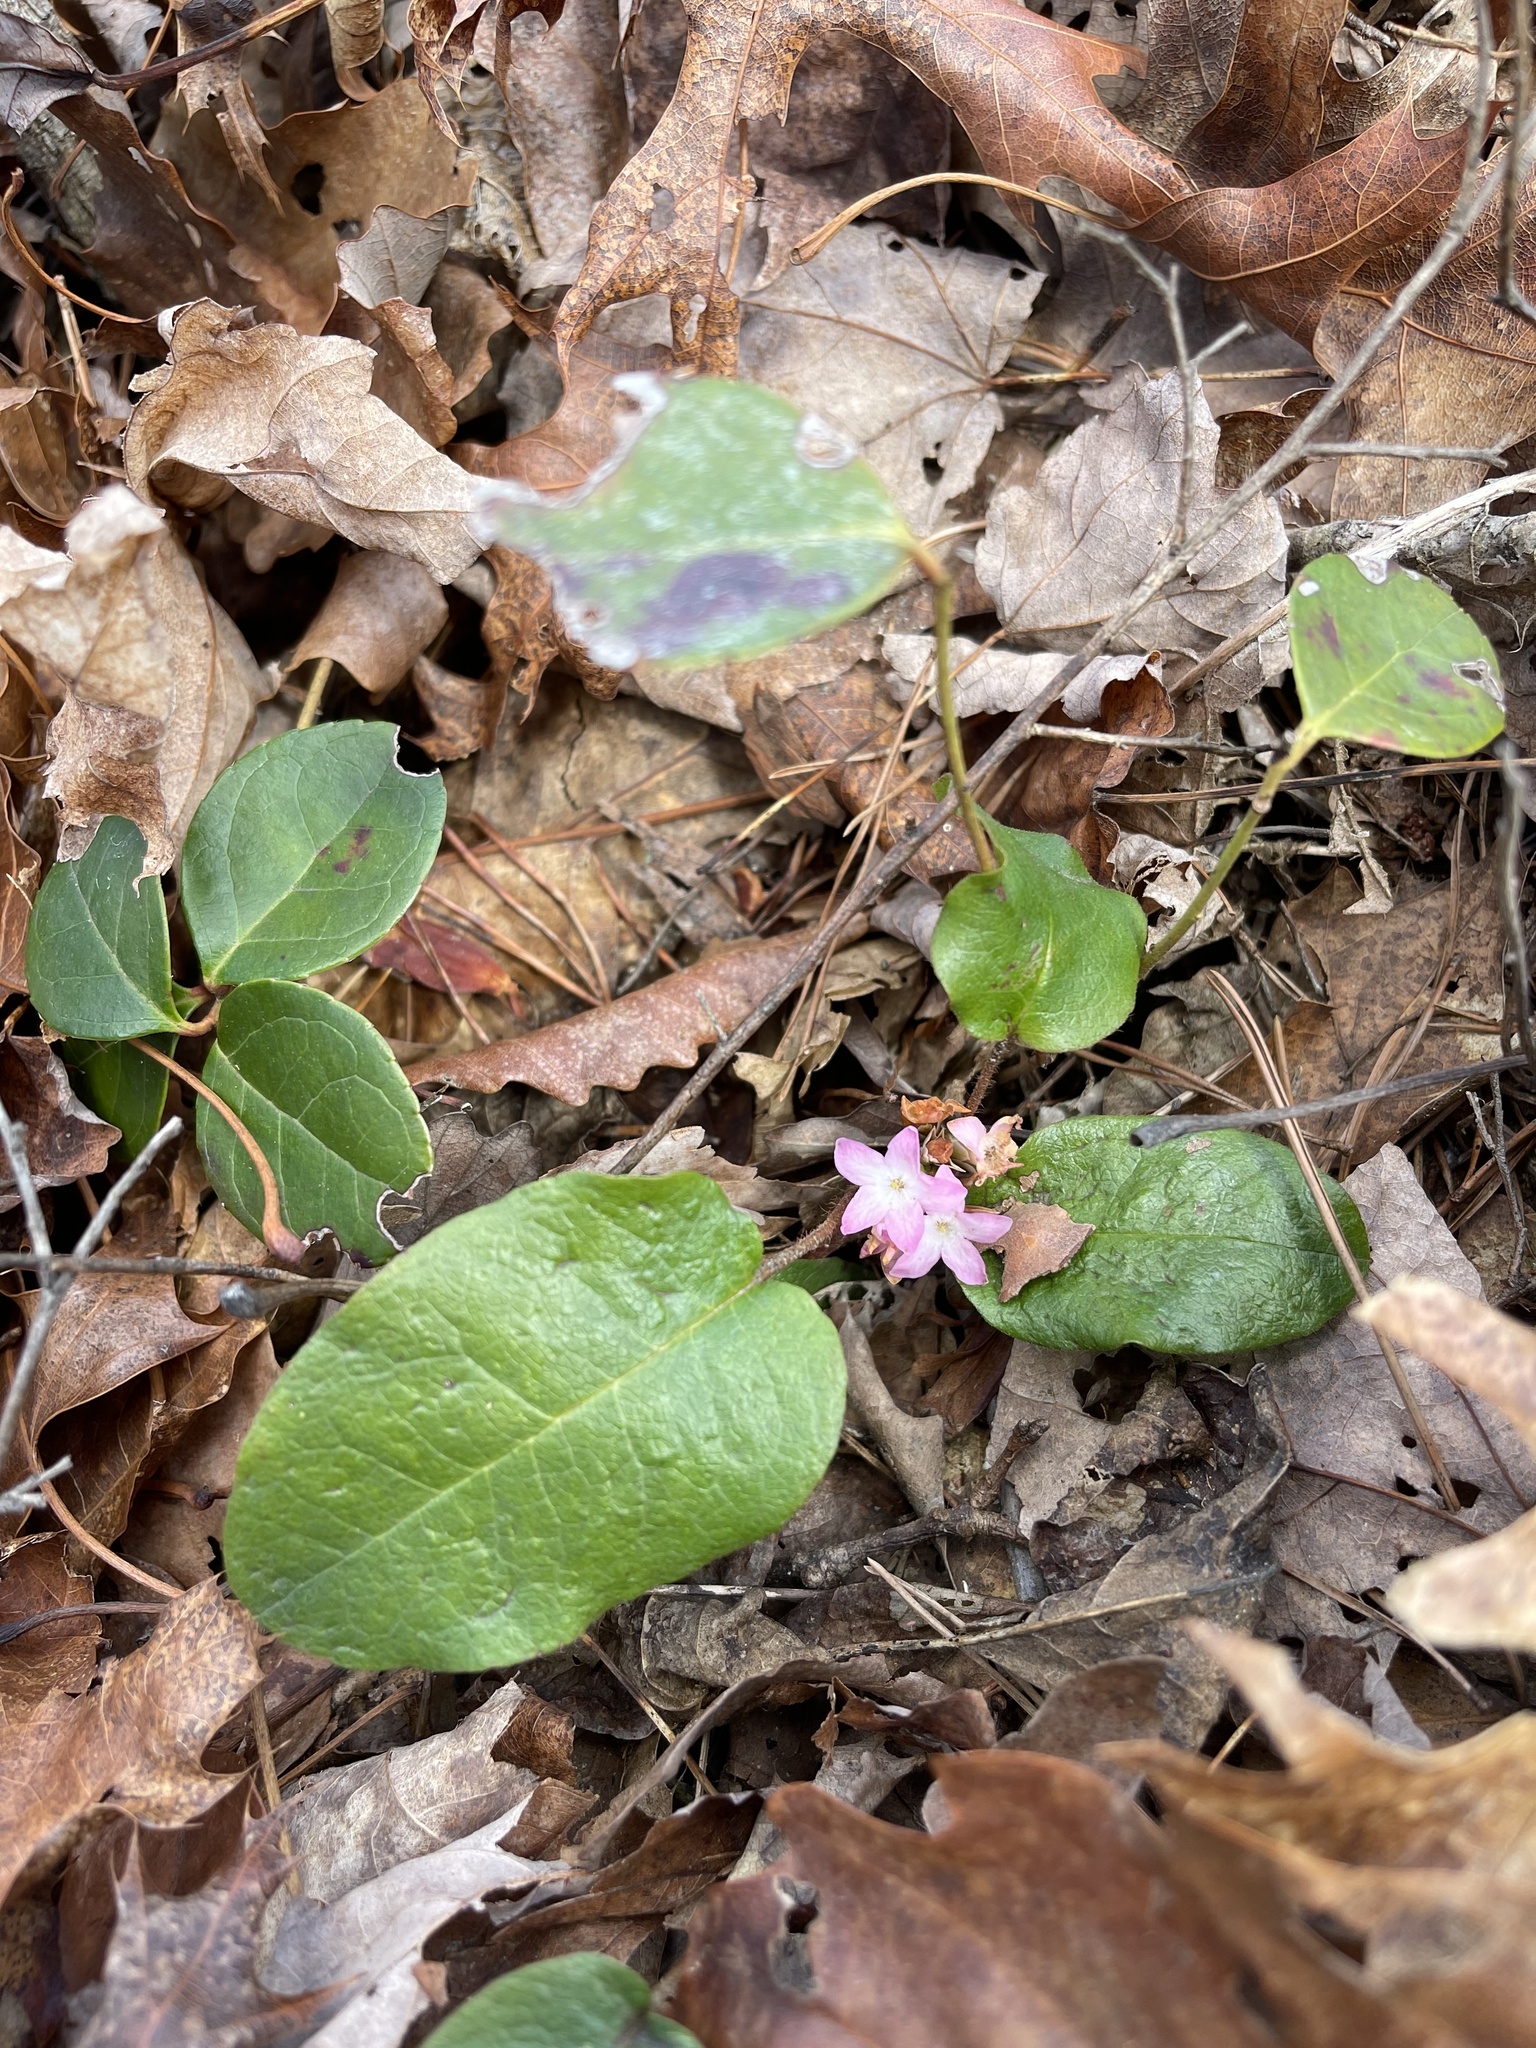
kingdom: Plantae
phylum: Tracheophyta
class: Magnoliopsida
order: Ericales
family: Ericaceae
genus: Epigaea
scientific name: Epigaea repens
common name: Gravelroot
